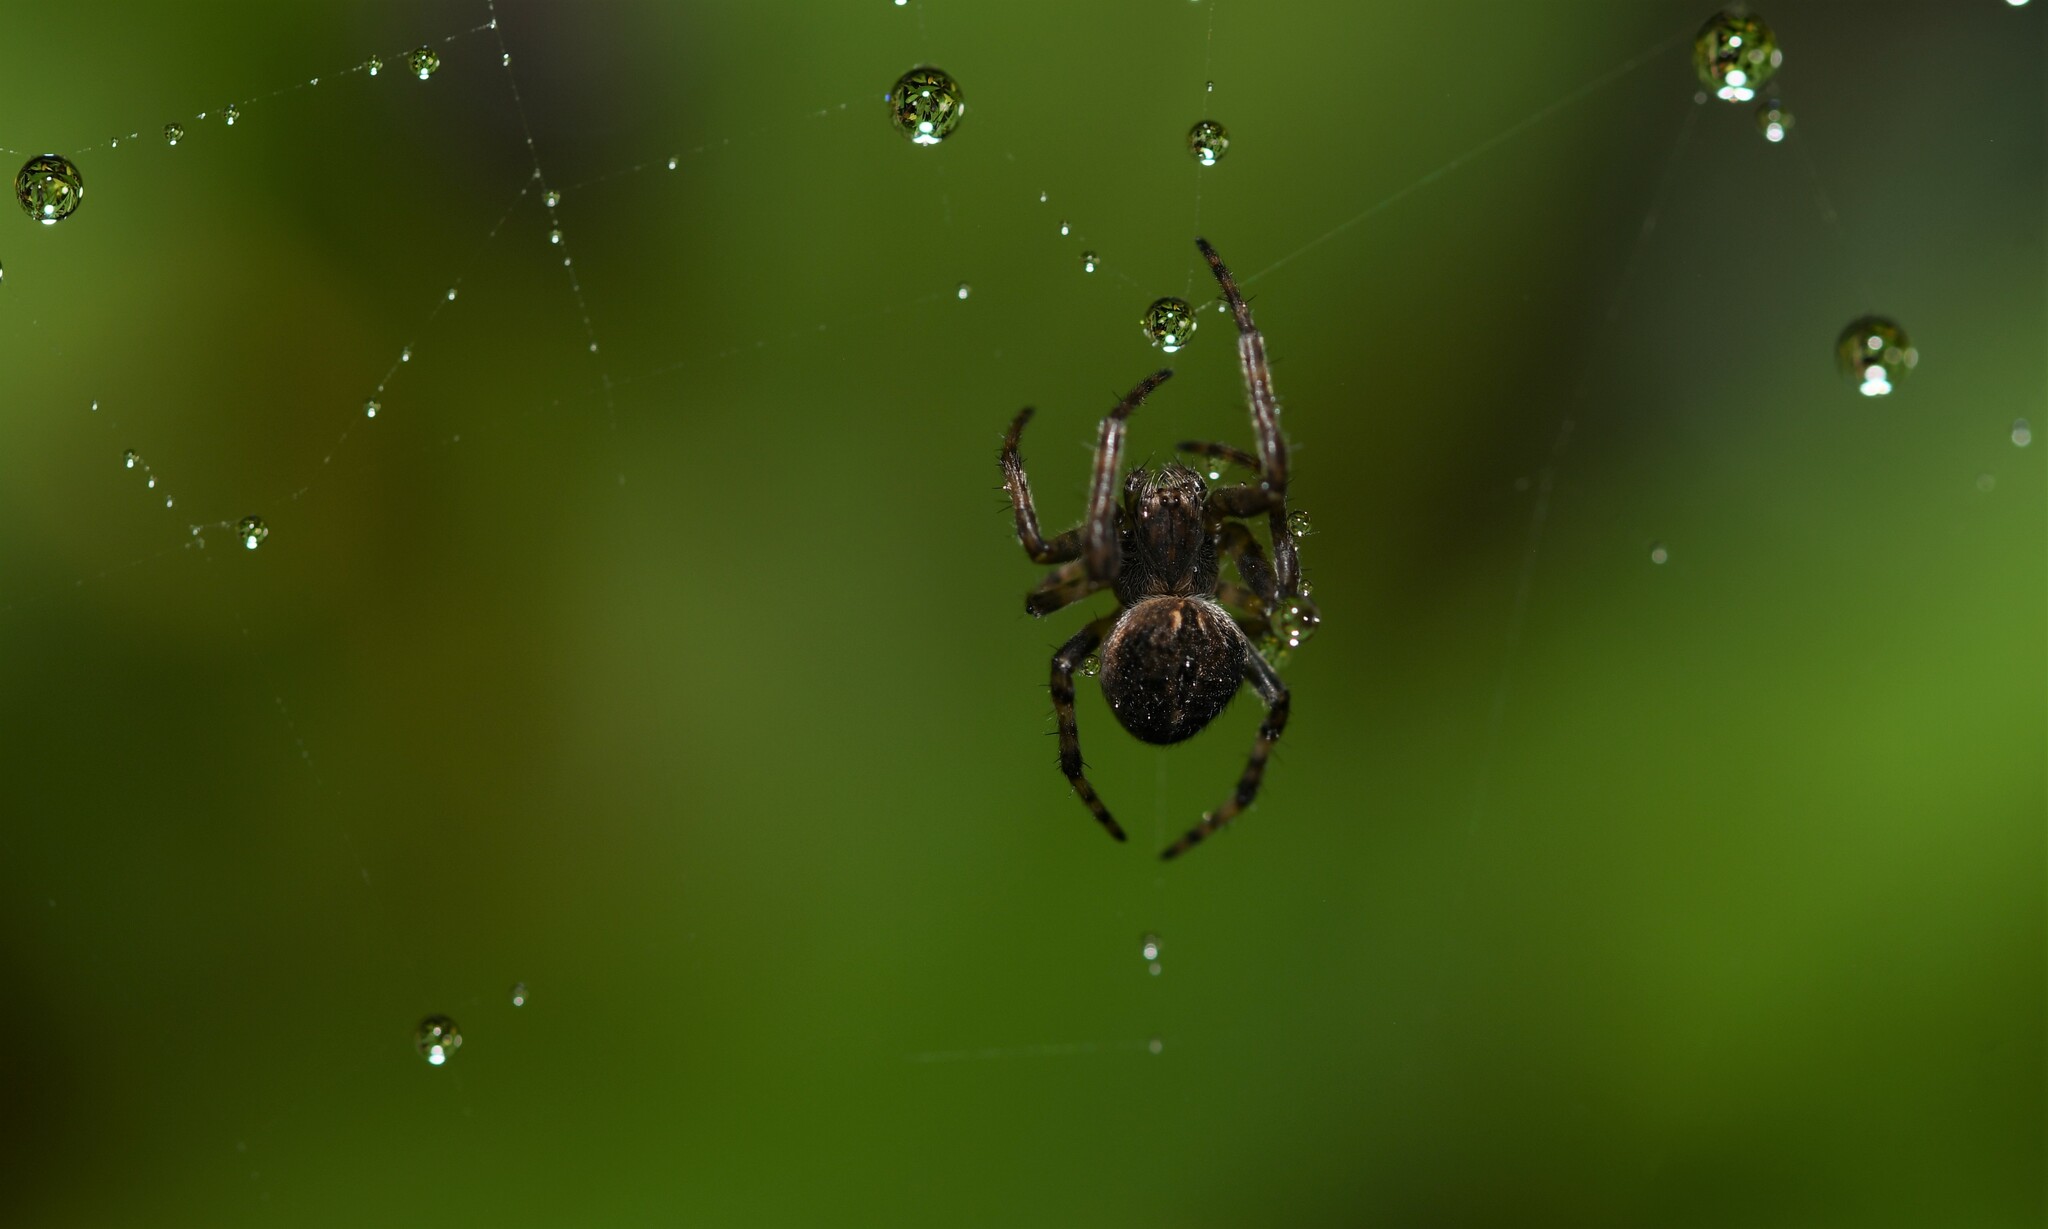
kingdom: Animalia
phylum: Arthropoda
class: Arachnida
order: Araneae
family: Araneidae
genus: Agalenatea
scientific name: Agalenatea redii
